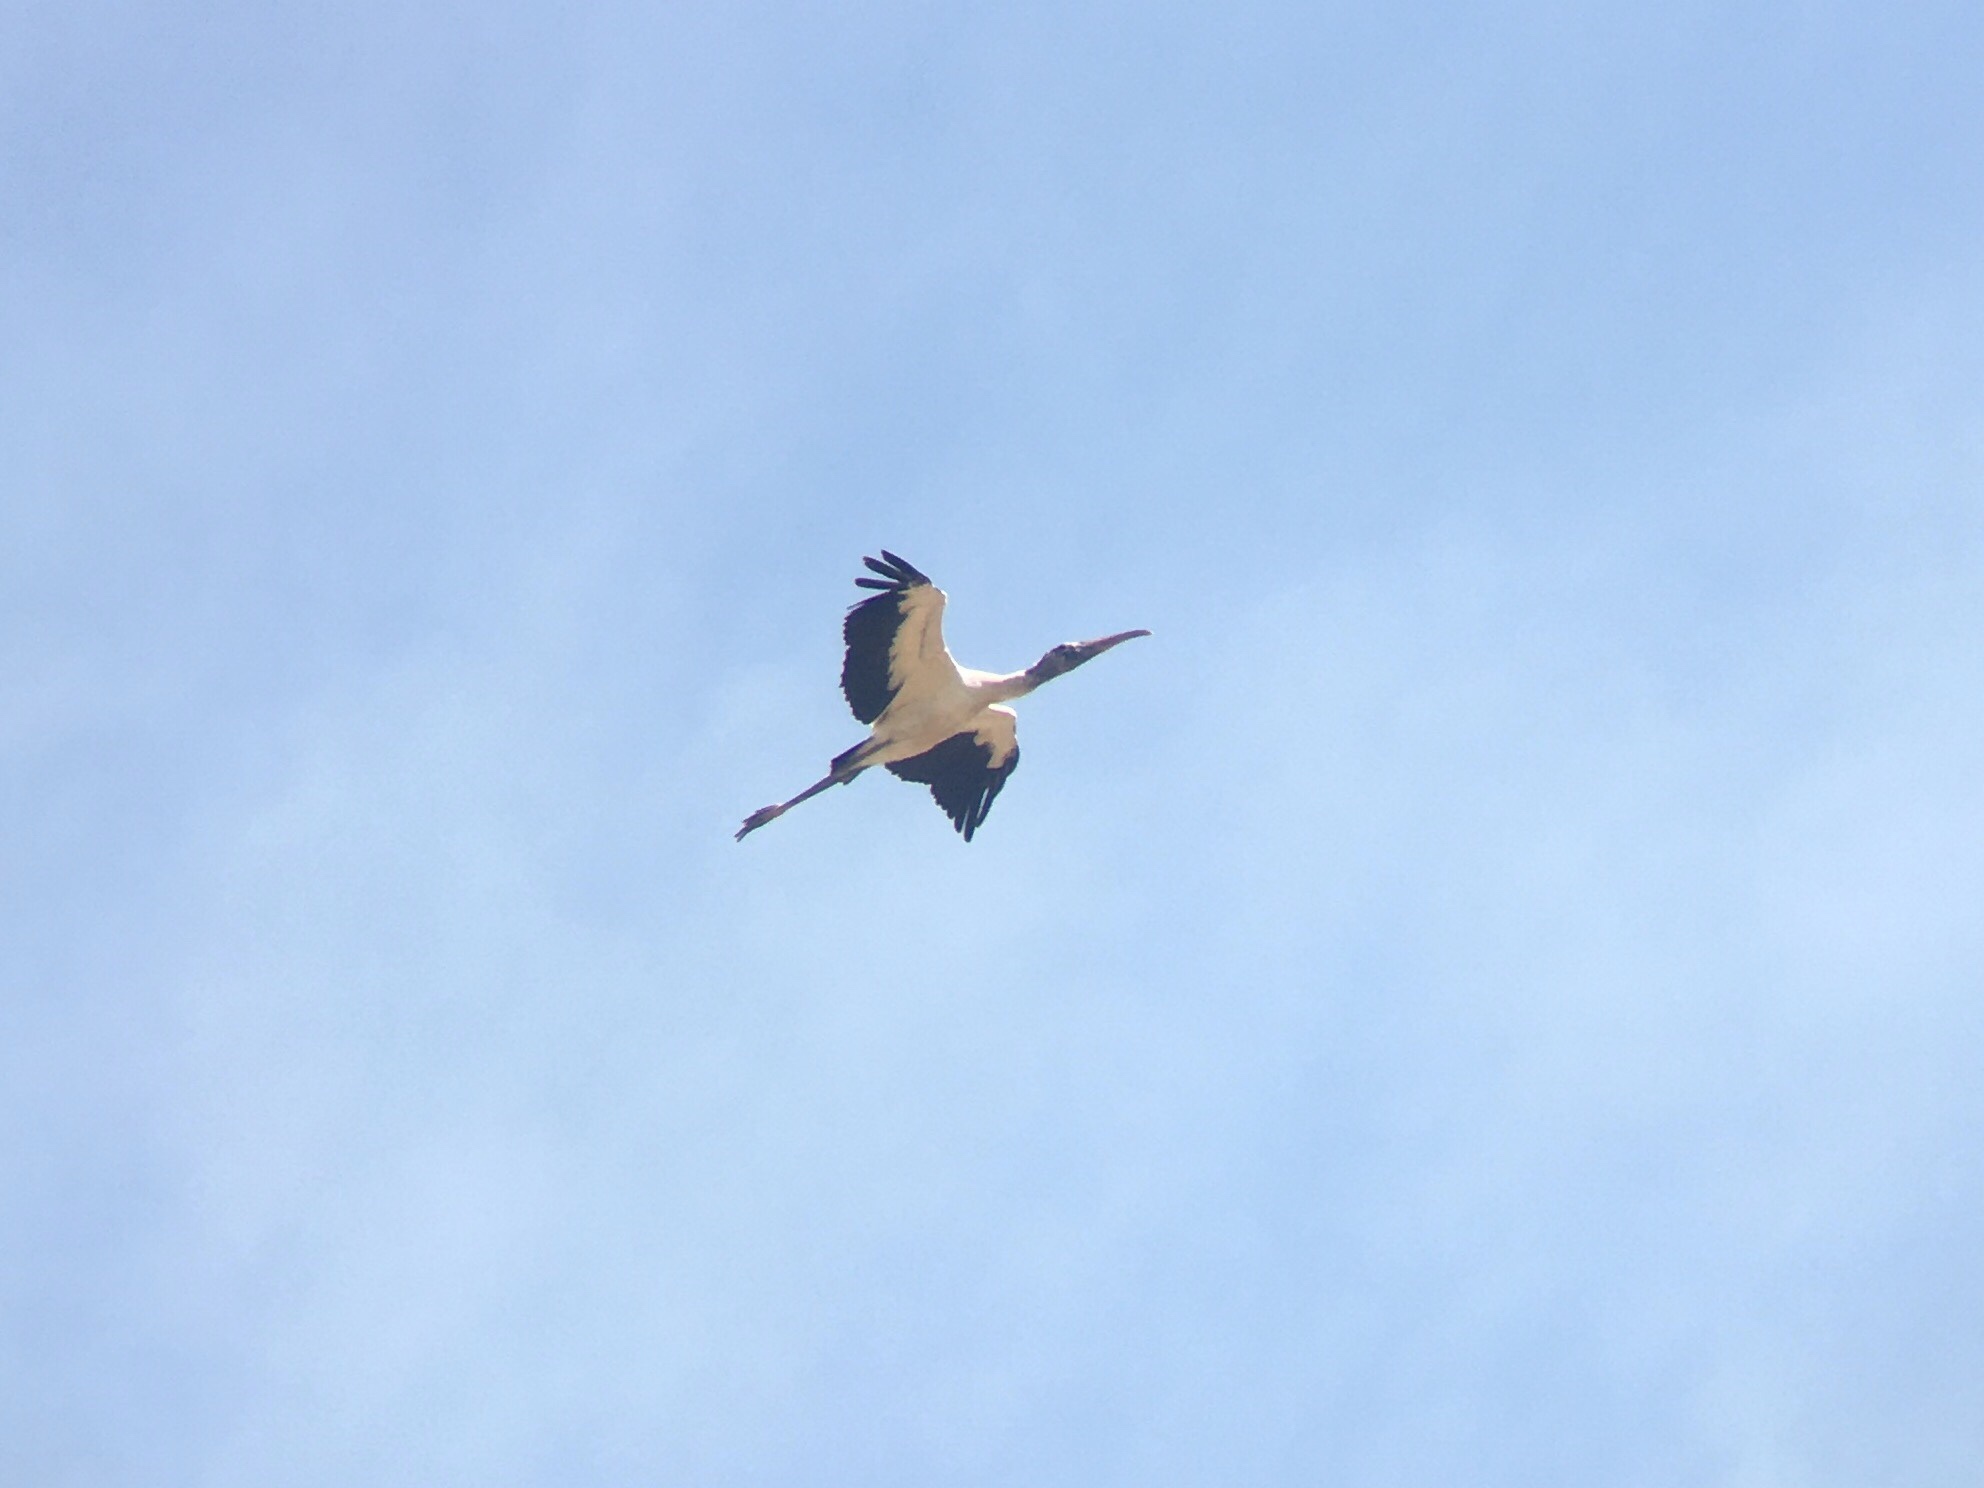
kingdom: Animalia
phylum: Chordata
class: Aves
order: Ciconiiformes
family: Ciconiidae
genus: Mycteria
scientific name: Mycteria americana
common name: Wood stork
